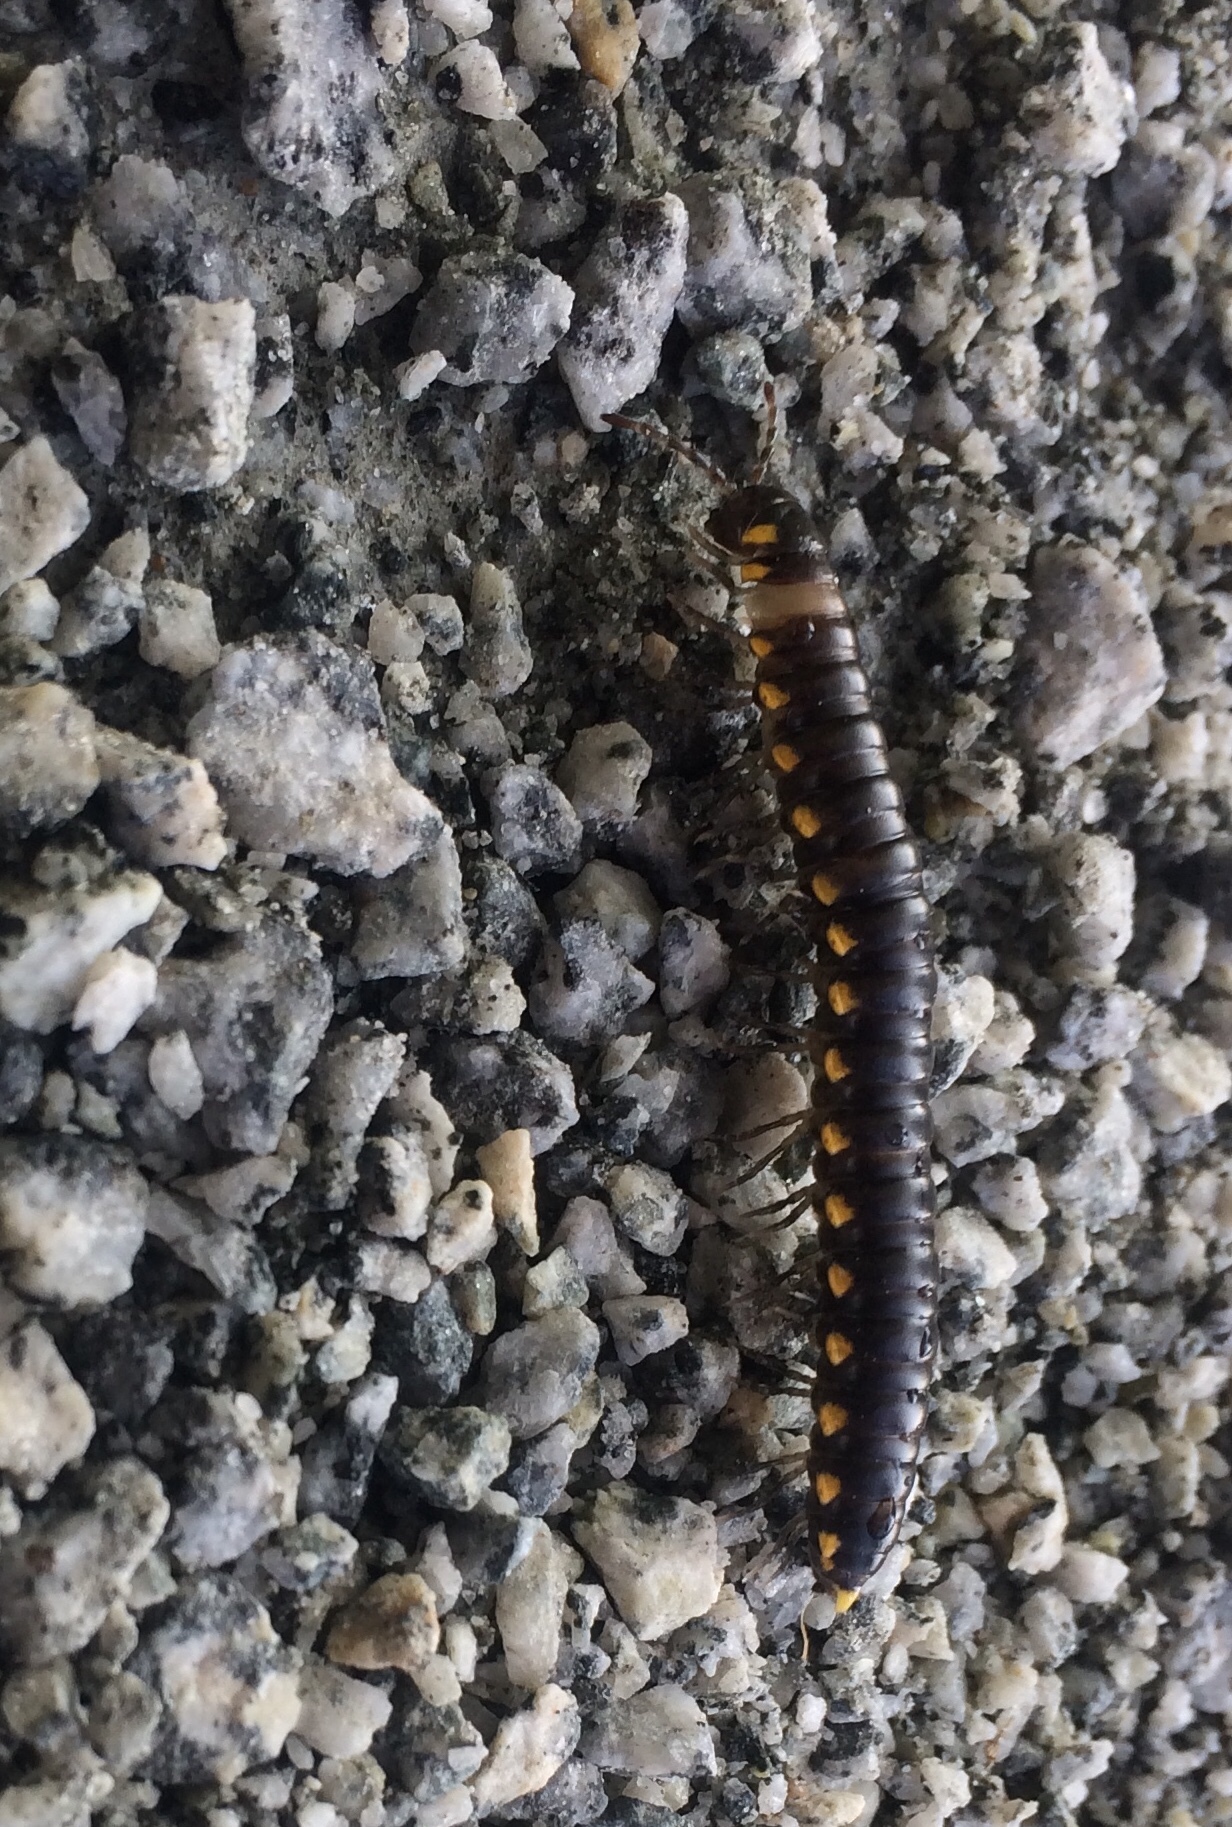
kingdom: Animalia
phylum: Arthropoda
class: Diplopoda
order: Polydesmida
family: Xystodesmidae
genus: Harpaphe
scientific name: Harpaphe haydeniana
